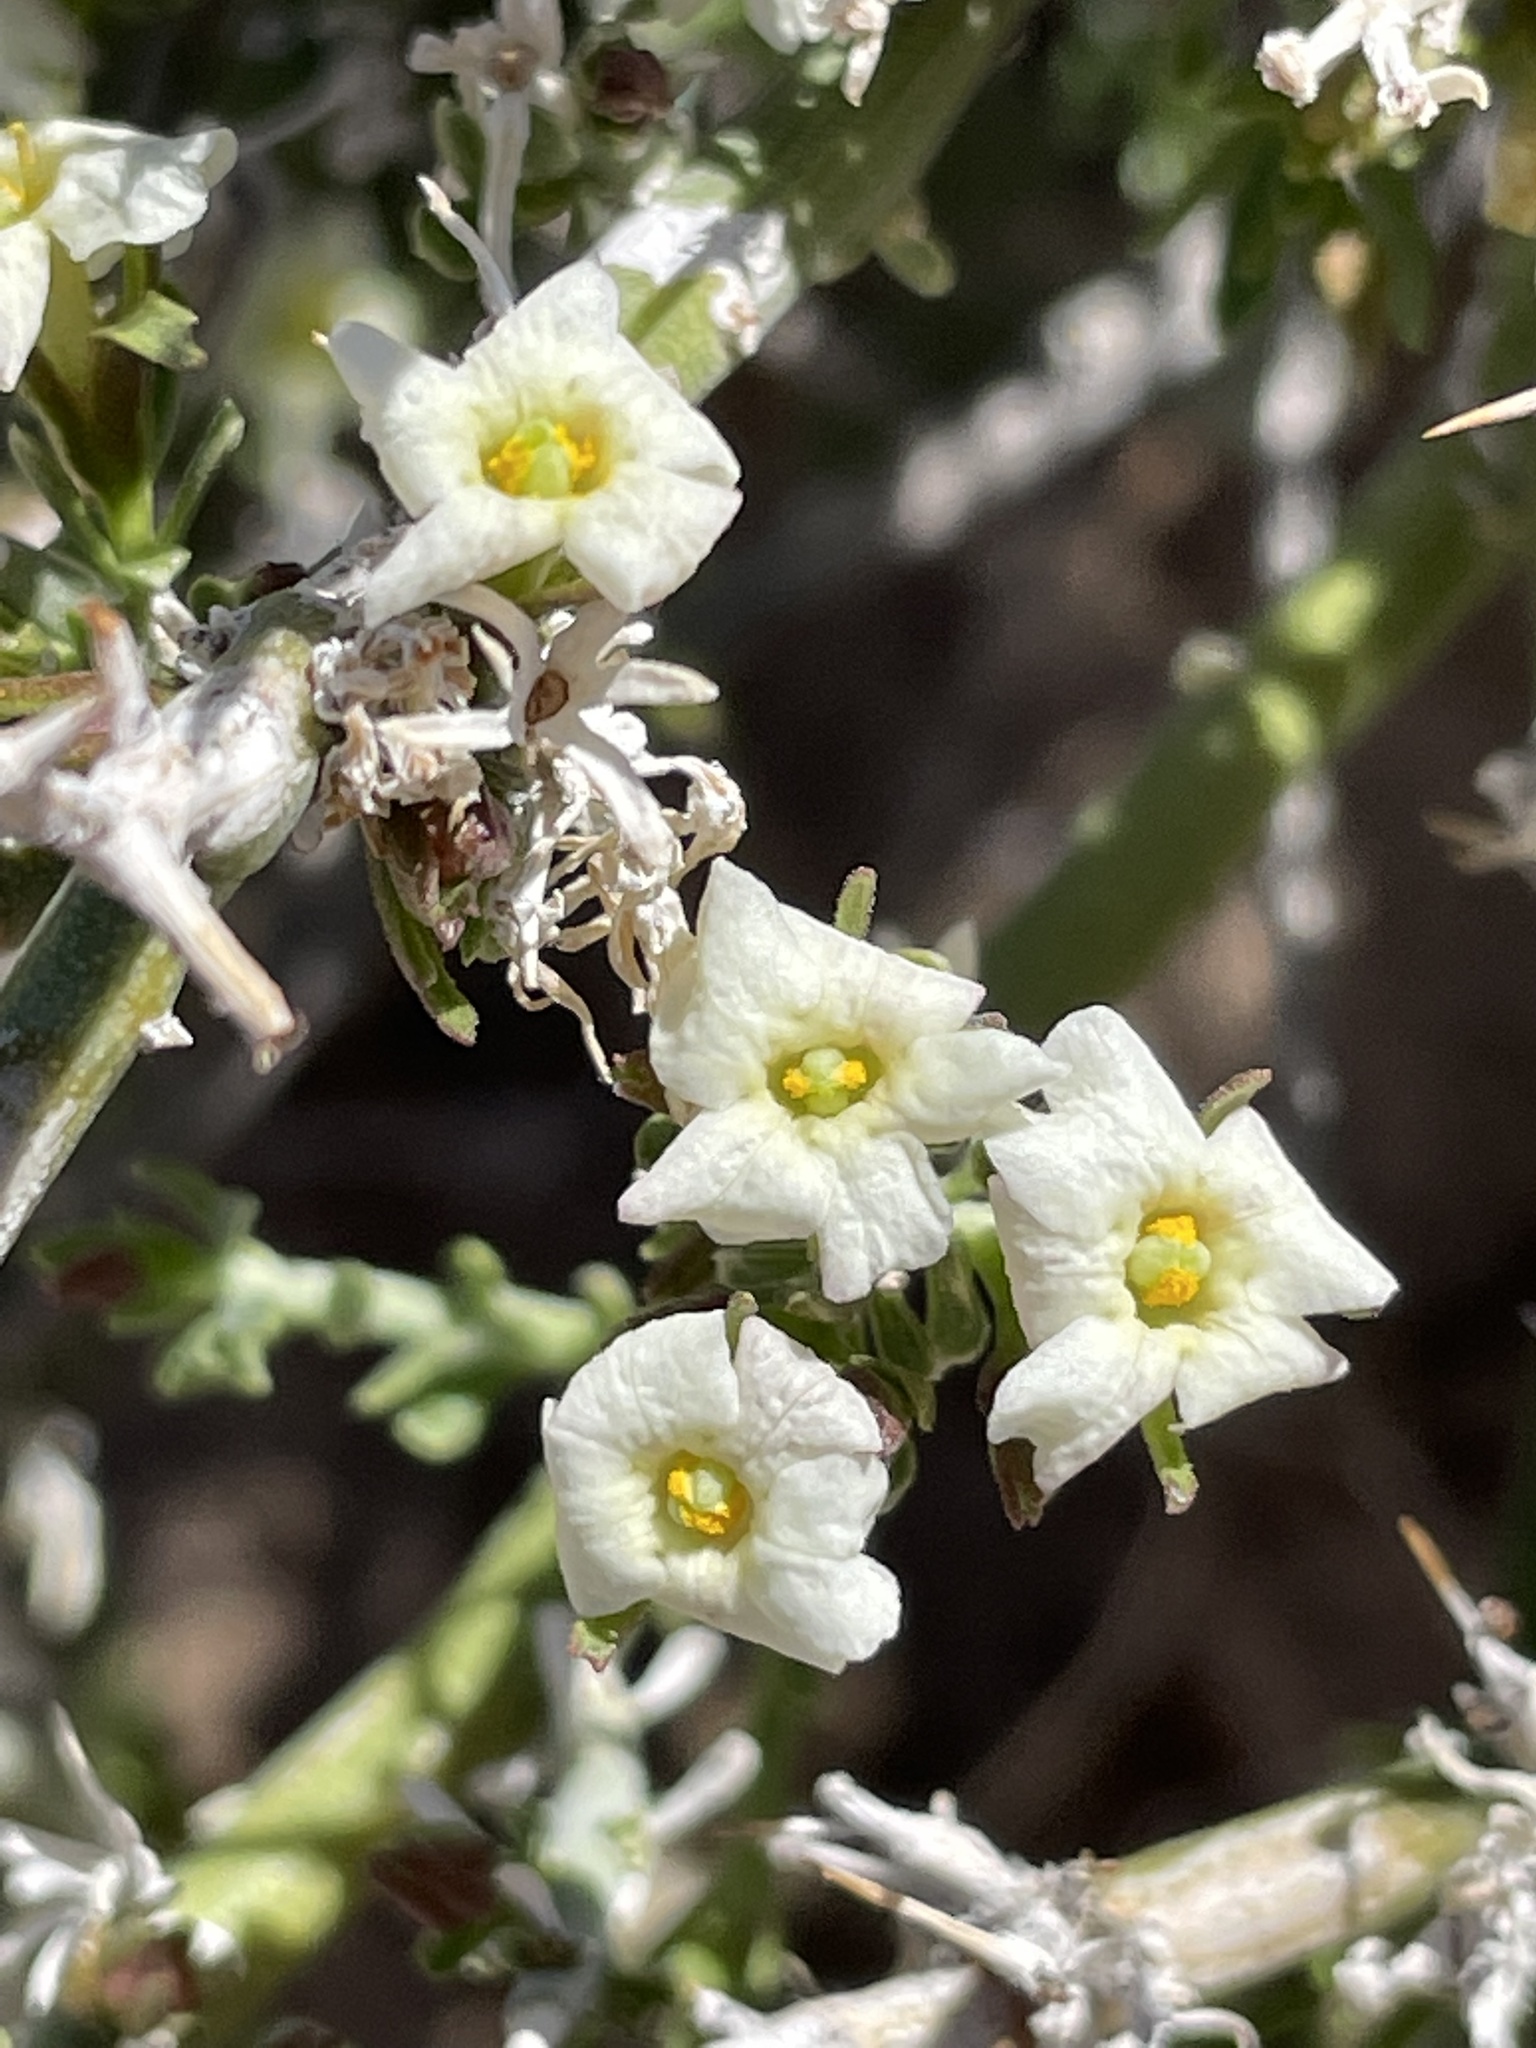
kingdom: Plantae
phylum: Tracheophyta
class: Magnoliopsida
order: Lamiales
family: Oleaceae
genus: Menodora
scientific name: Menodora spinescens
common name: Spiny menodora
